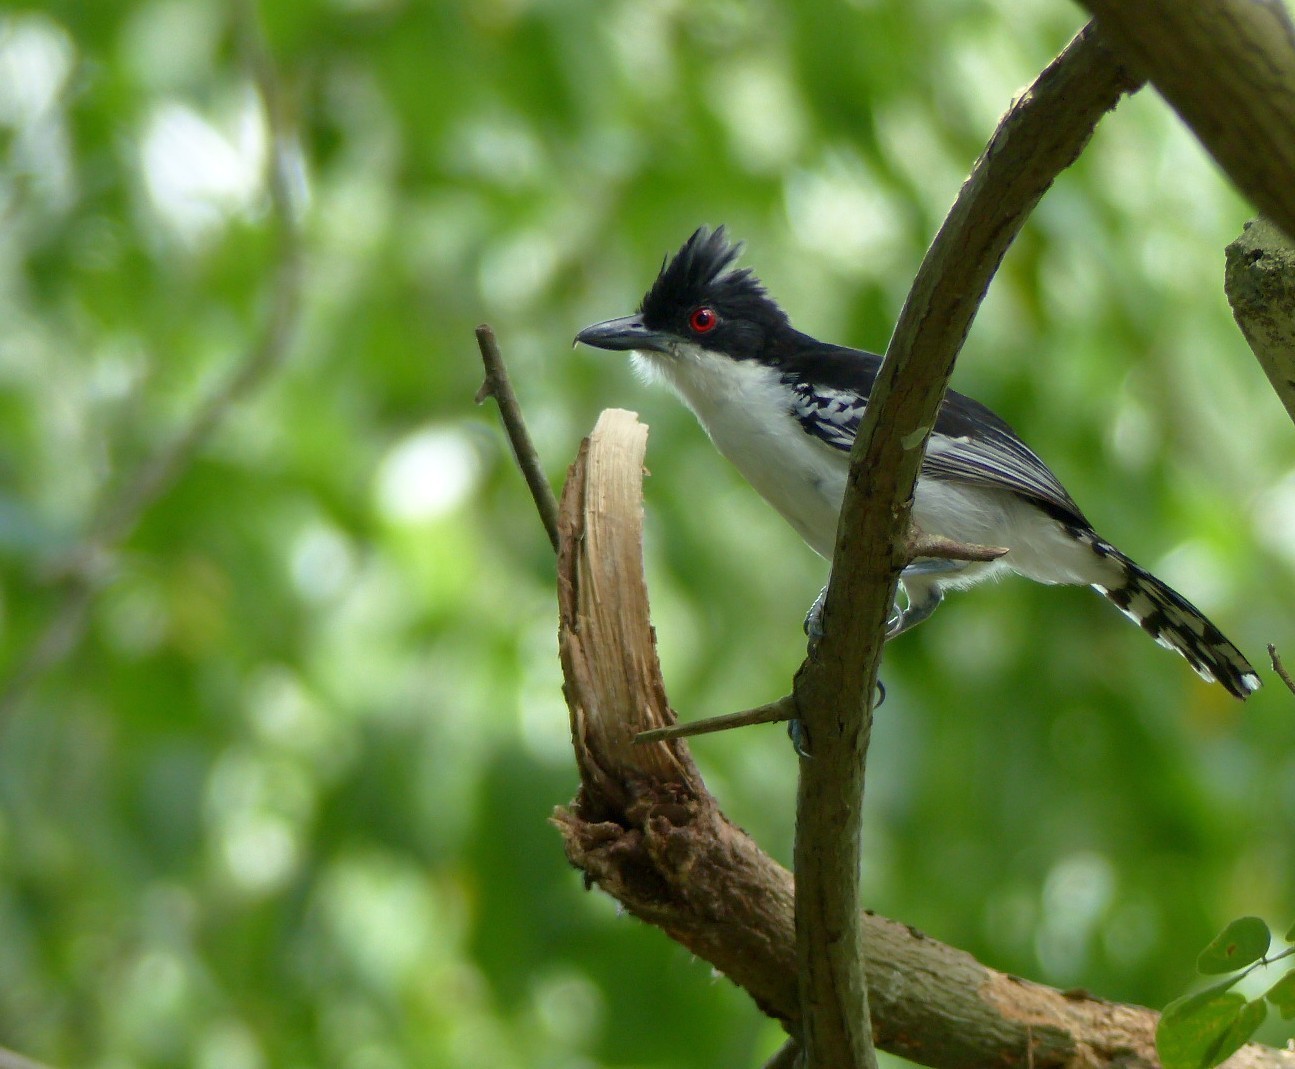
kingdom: Animalia
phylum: Chordata
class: Aves
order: Passeriformes
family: Thamnophilidae
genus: Taraba
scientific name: Taraba major
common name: Great antshrike
